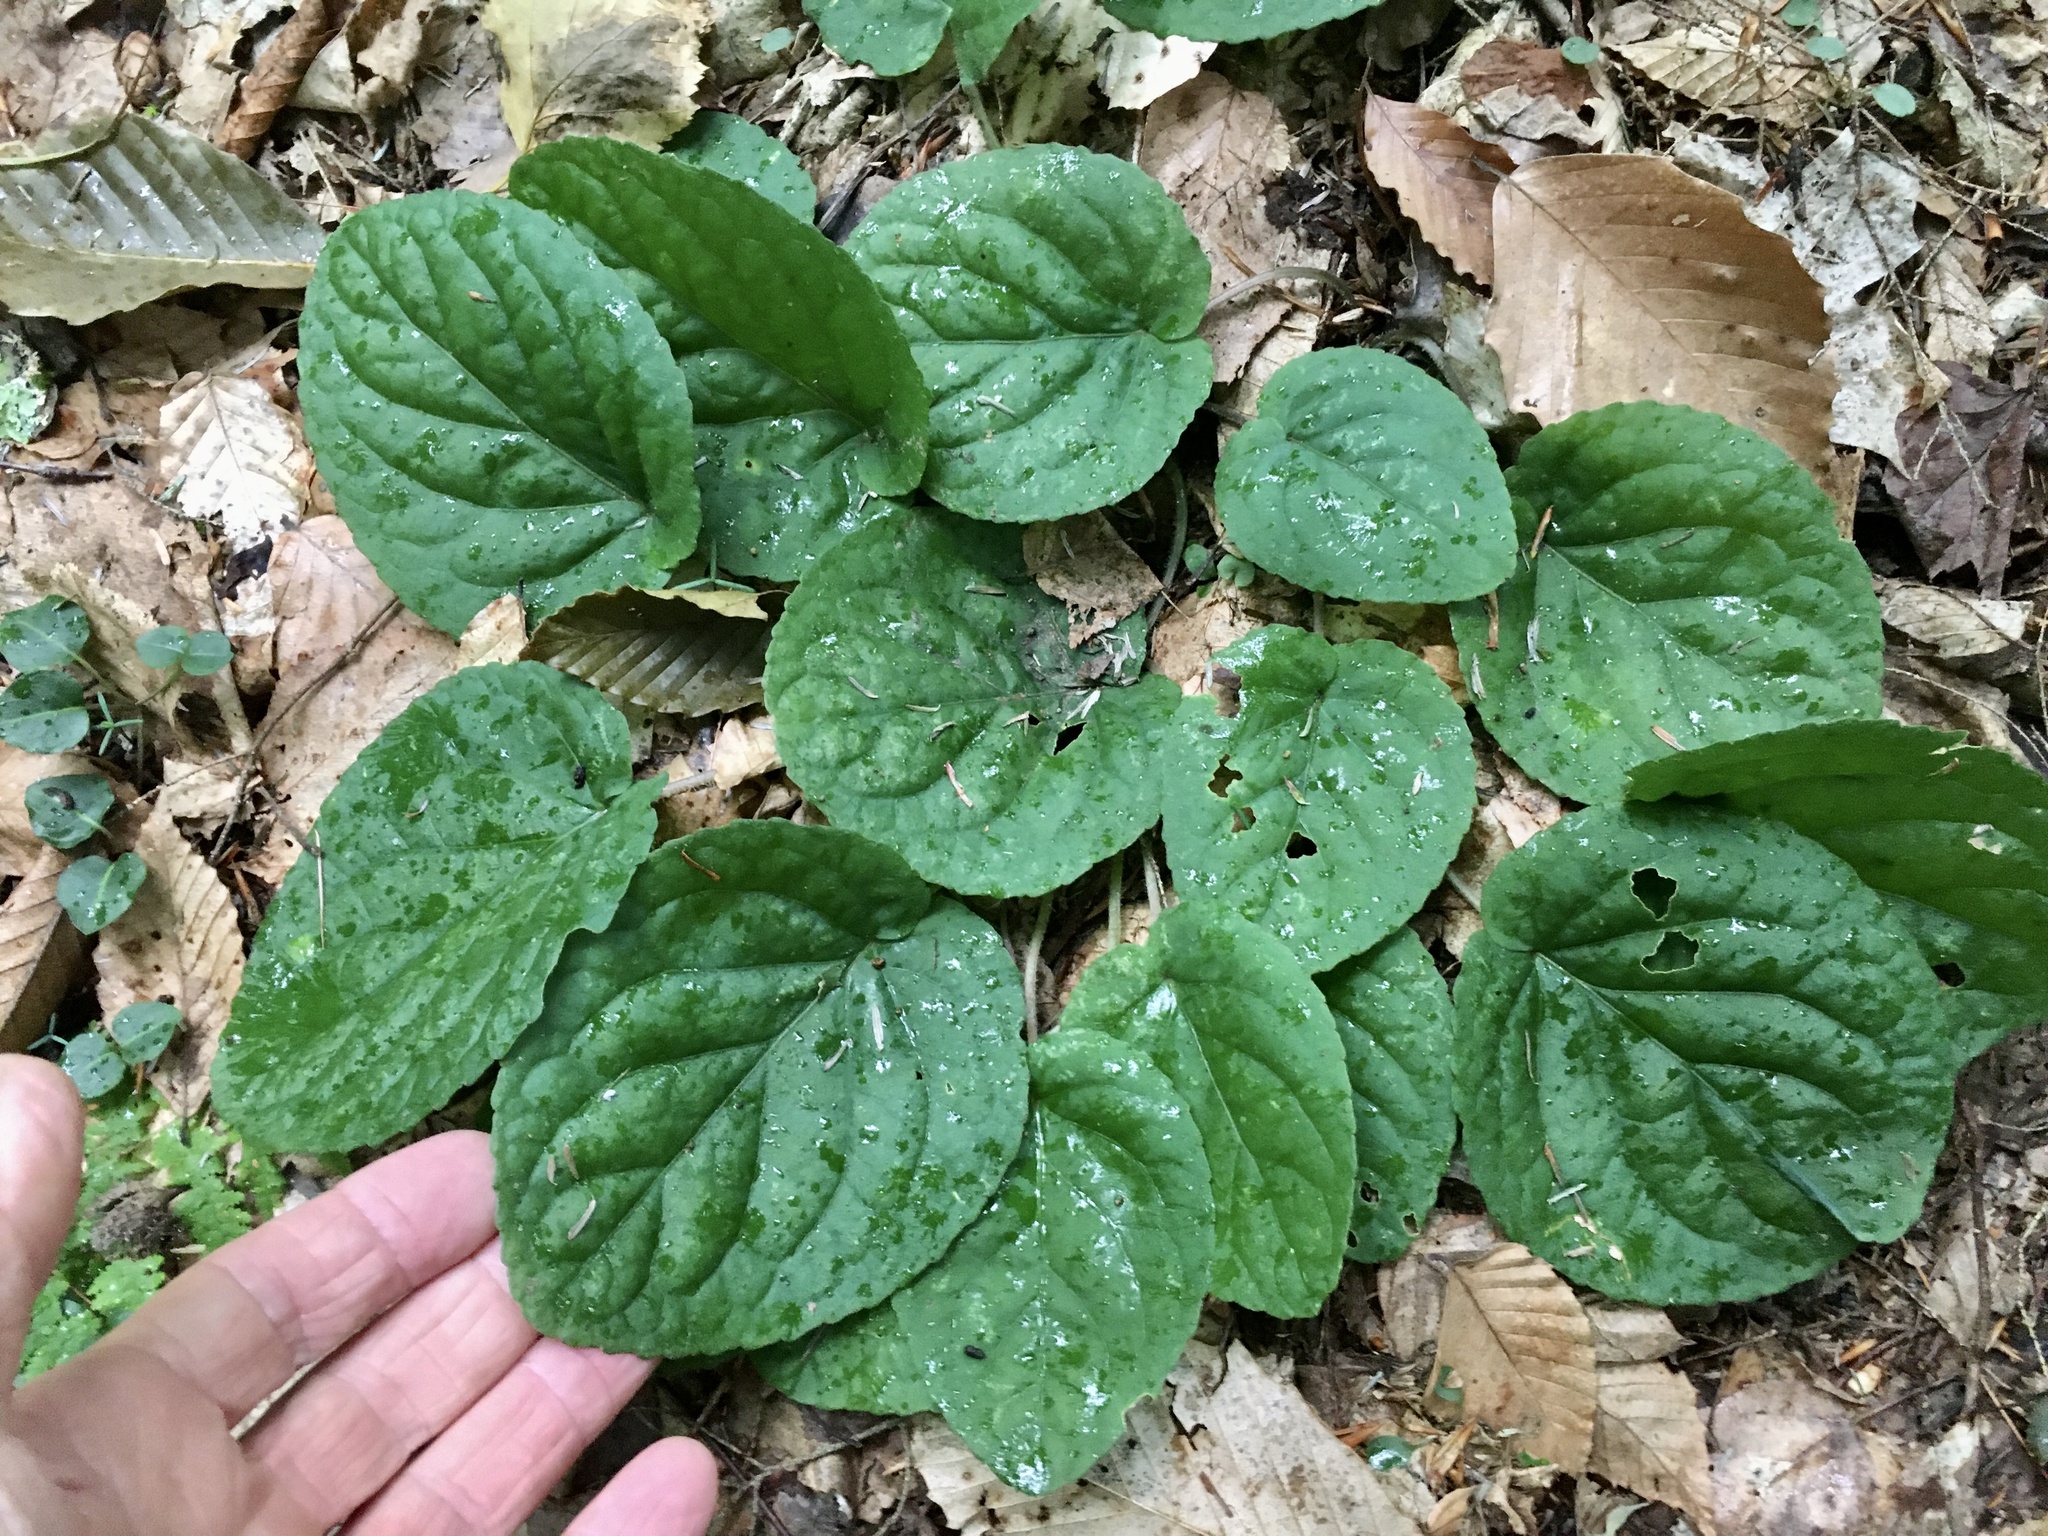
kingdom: Plantae
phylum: Tracheophyta
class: Magnoliopsida
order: Malpighiales
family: Violaceae
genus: Viola
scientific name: Viola rotundifolia
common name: Early yellow violet
